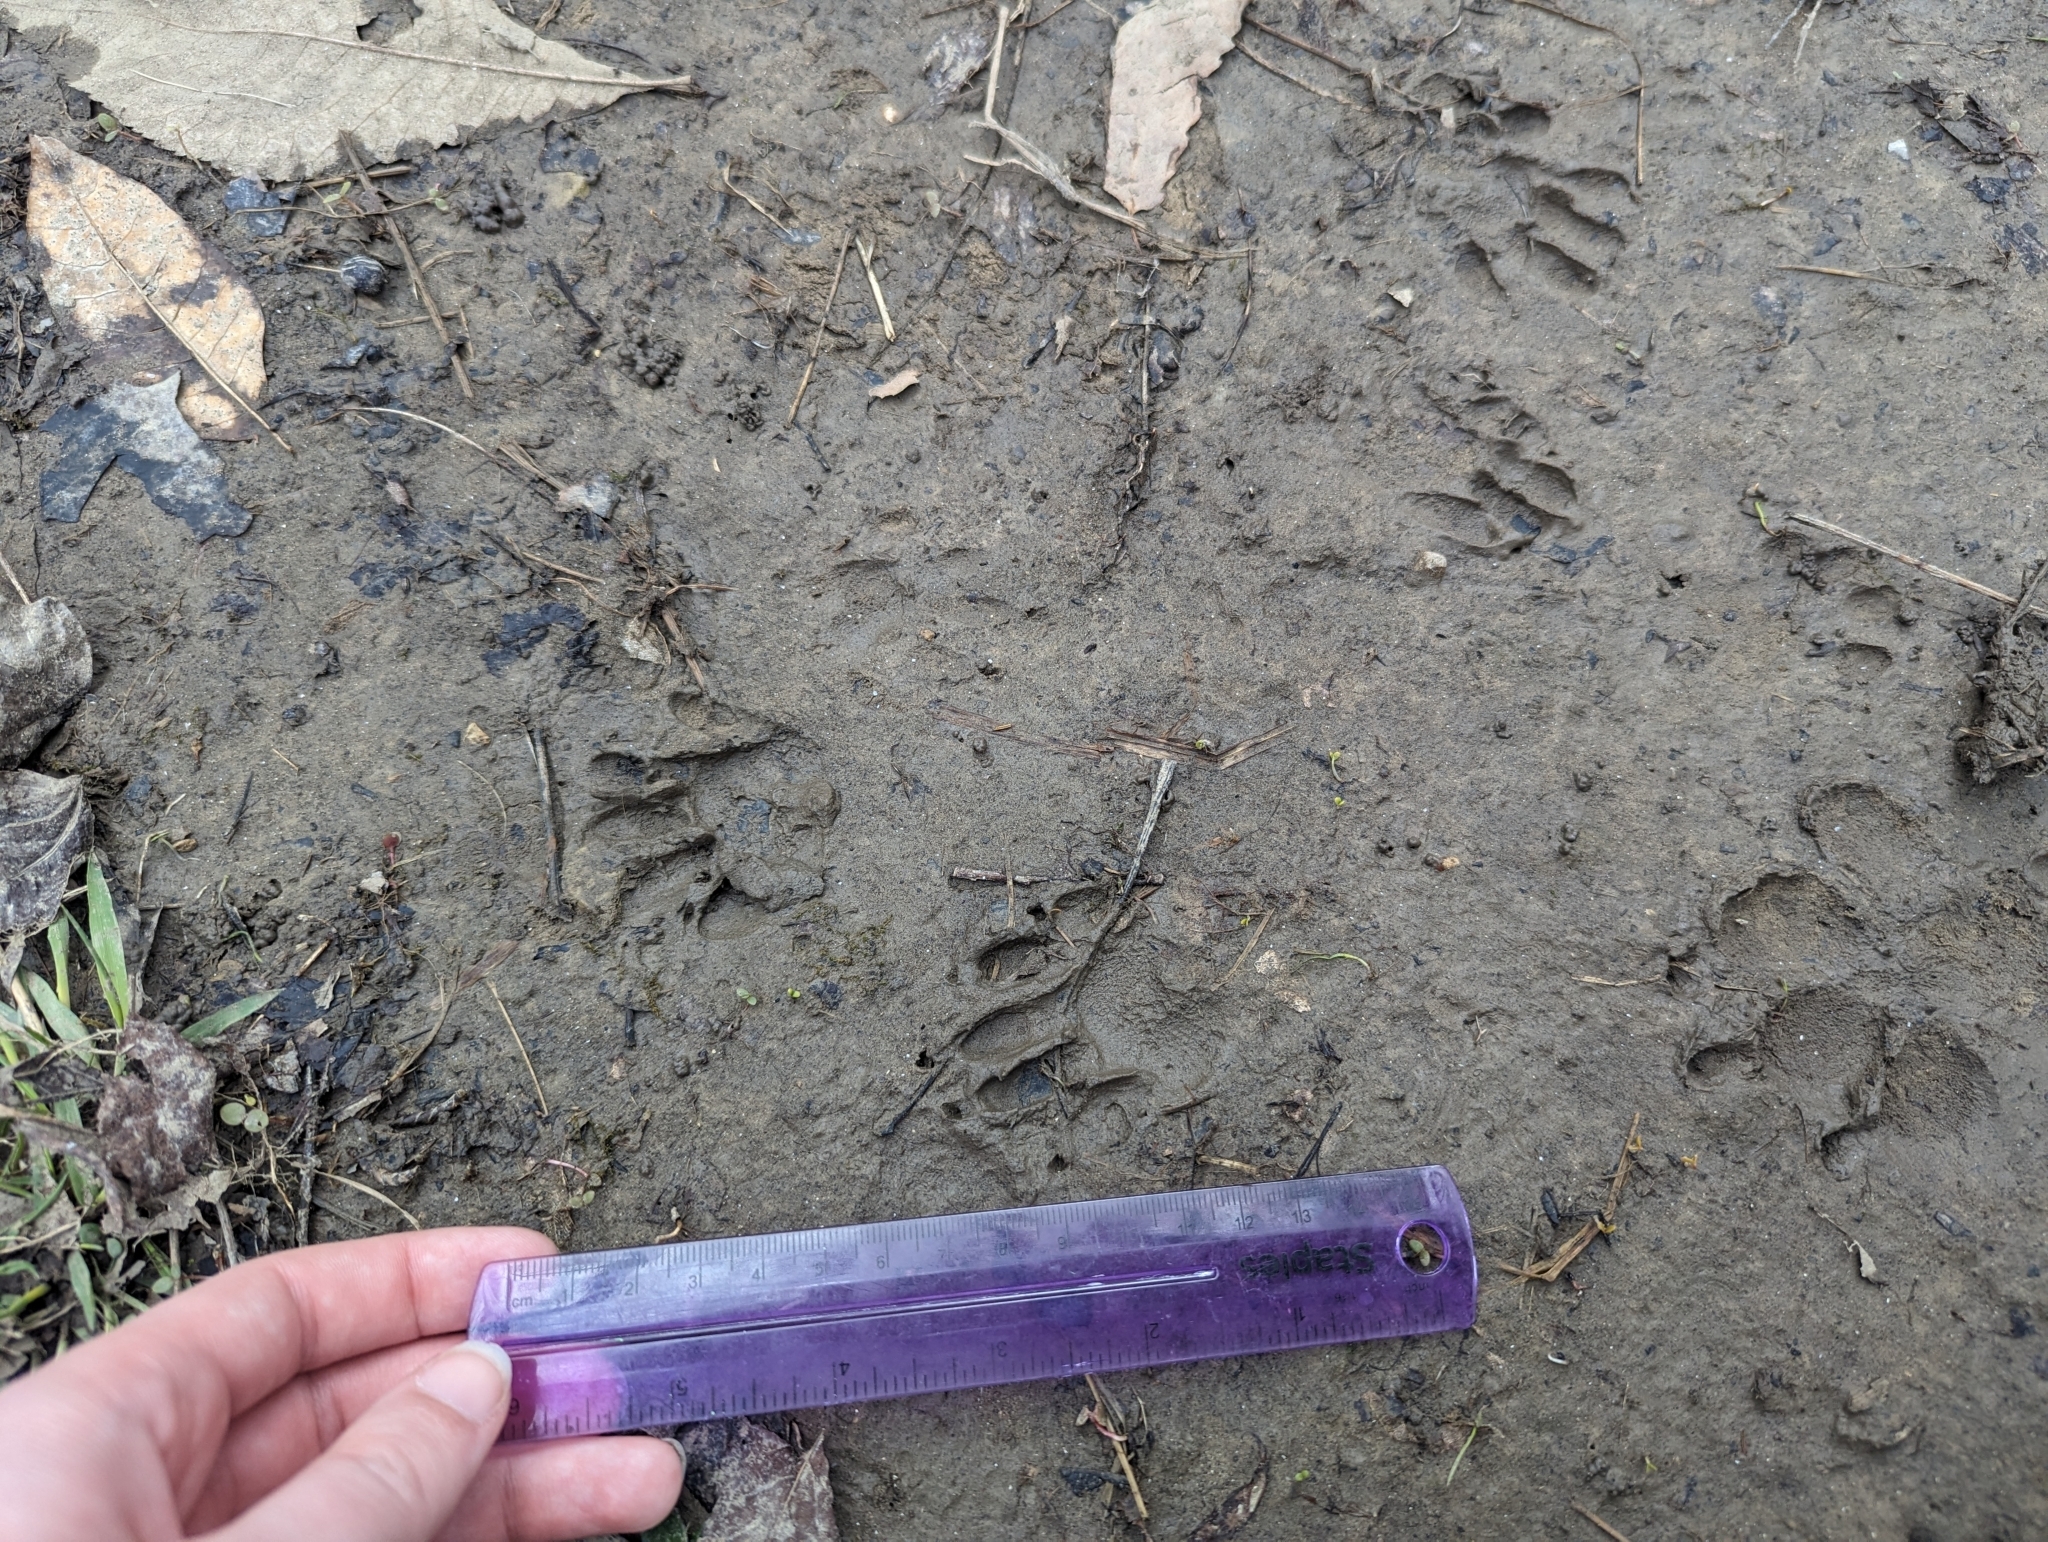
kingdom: Animalia
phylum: Chordata
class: Mammalia
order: Carnivora
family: Procyonidae
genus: Procyon
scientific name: Procyon lotor
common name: Raccoon
